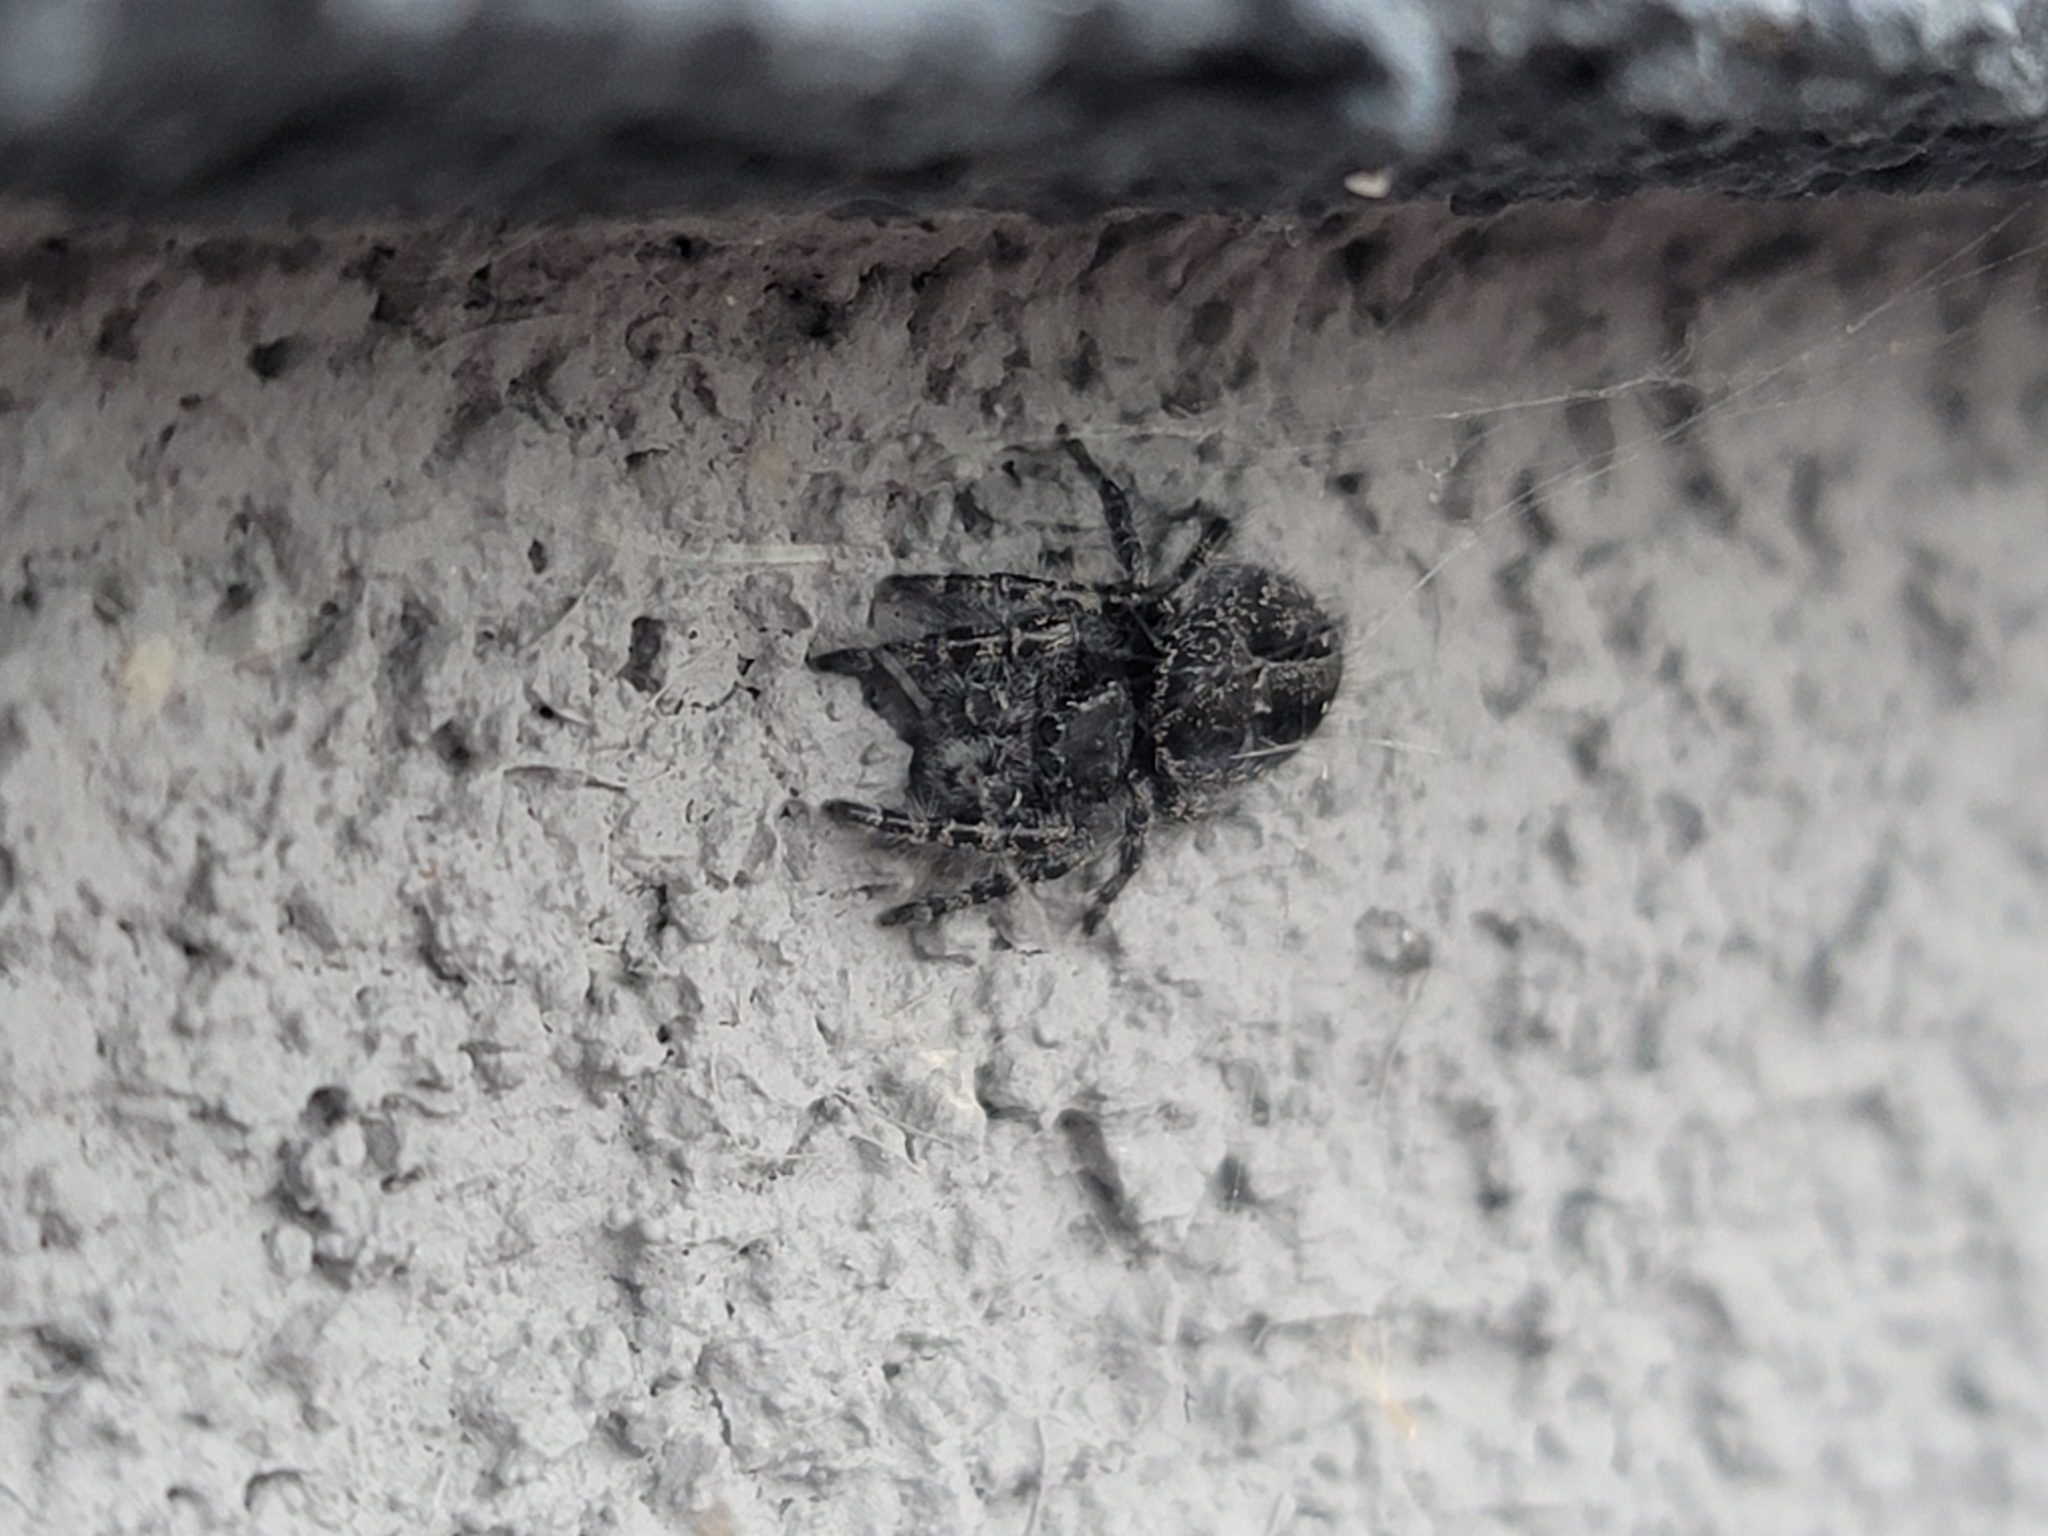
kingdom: Animalia
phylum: Arthropoda
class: Arachnida
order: Araneae
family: Salticidae
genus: Phidippus
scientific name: Phidippus borealis
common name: Boreal tufted jumping spider
